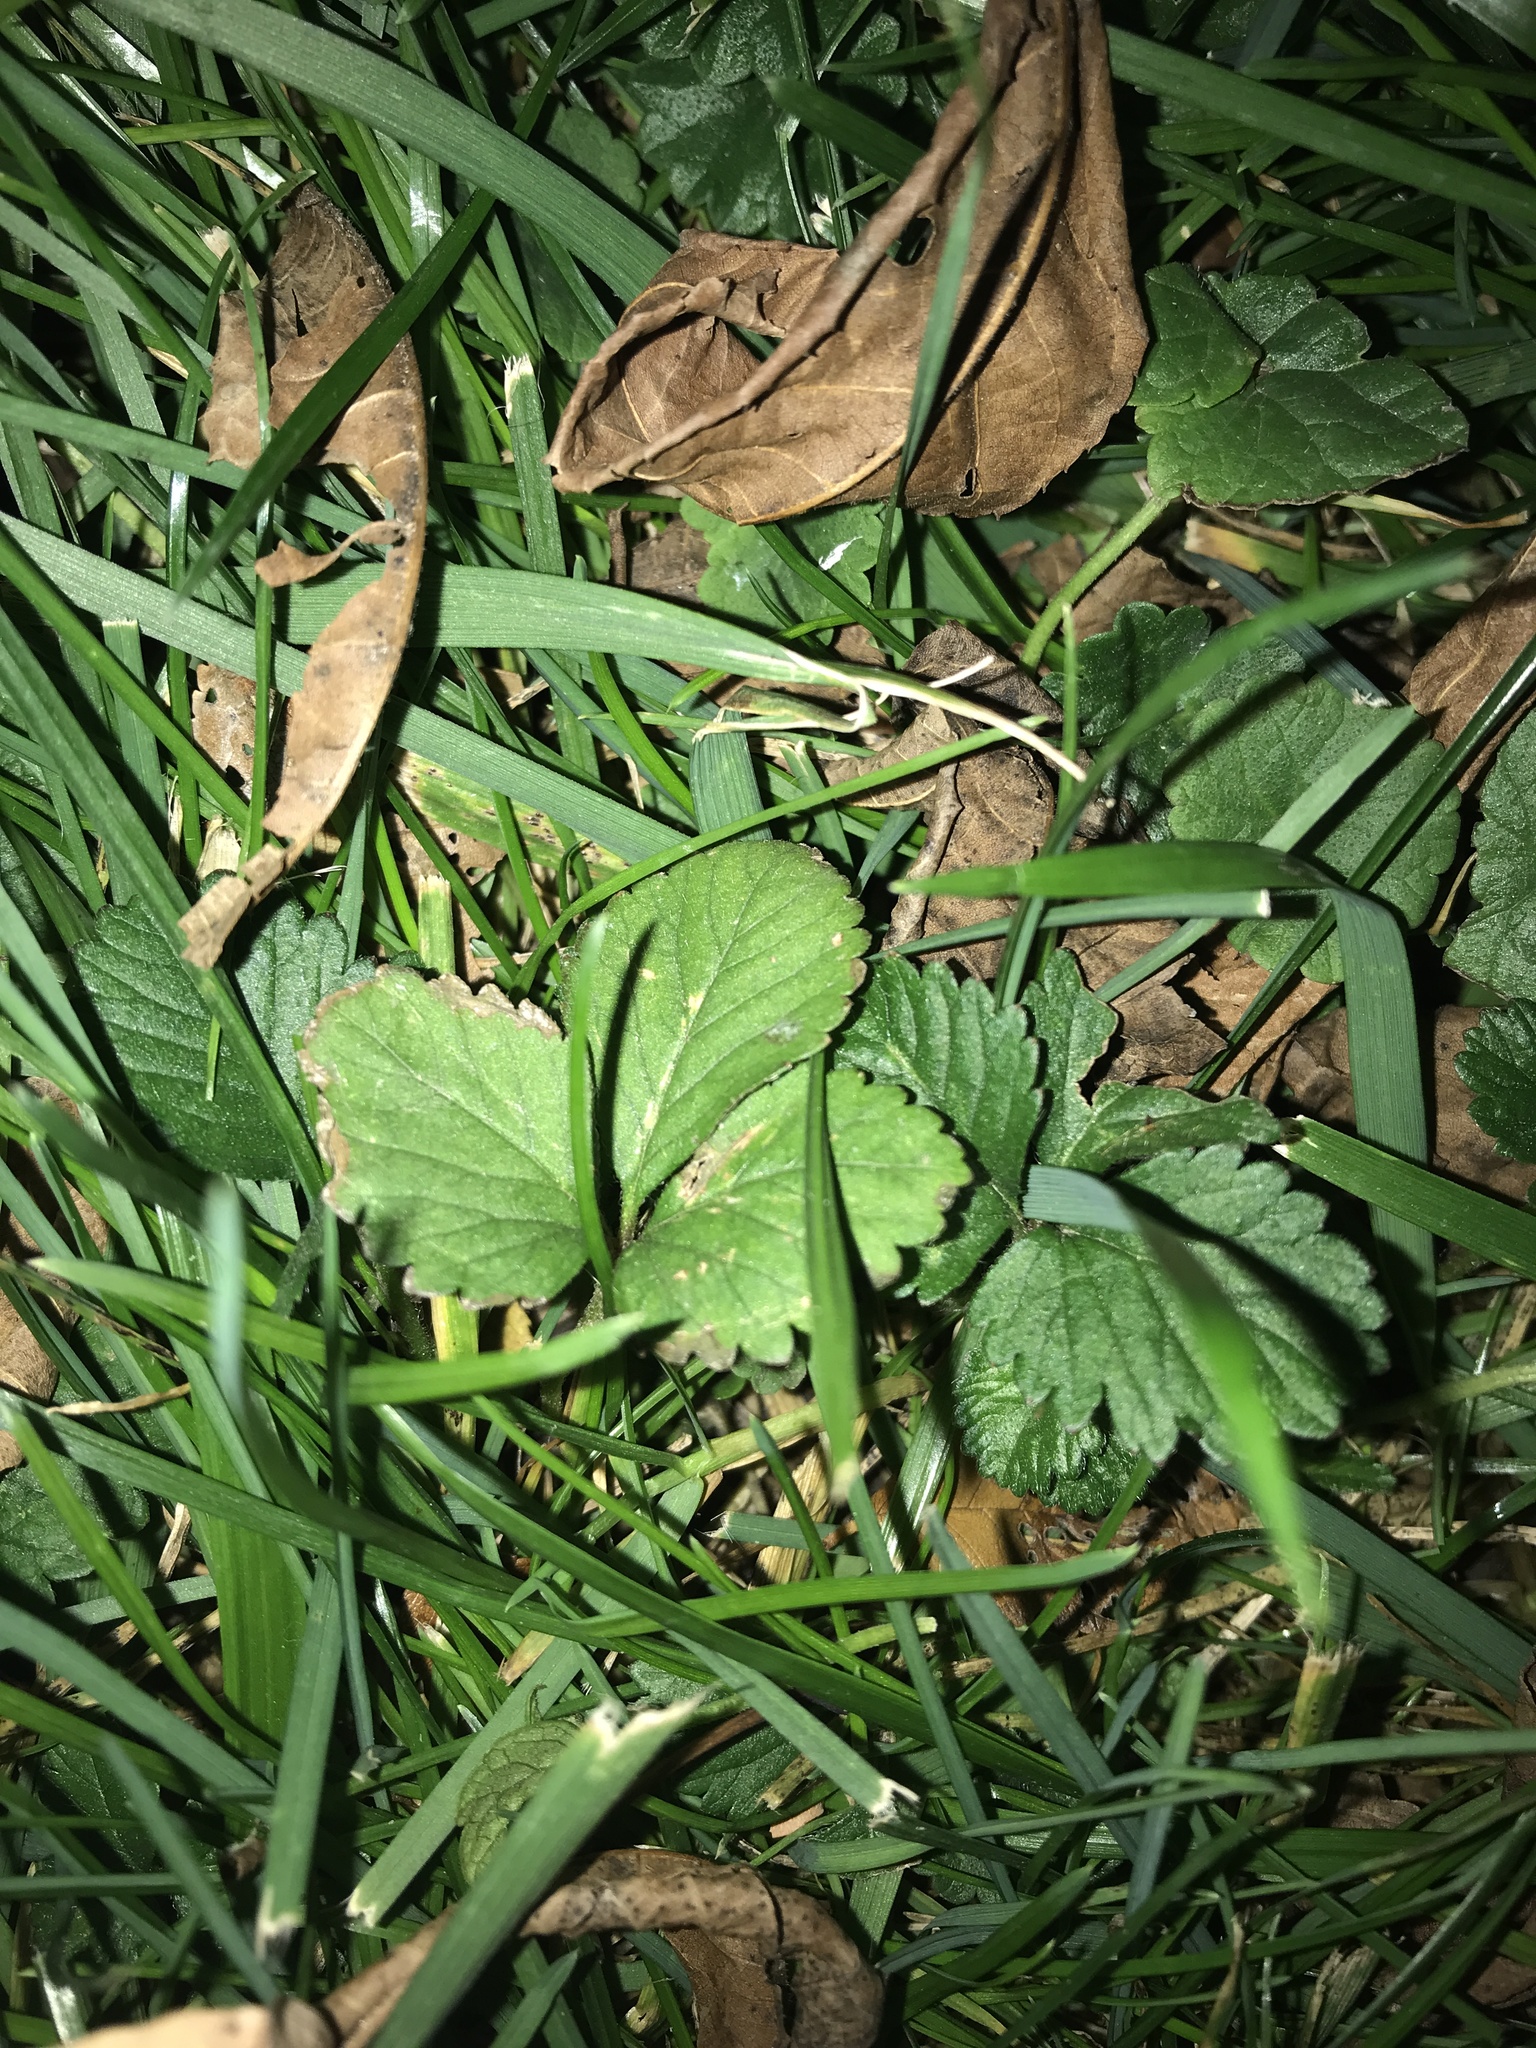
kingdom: Plantae
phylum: Tracheophyta
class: Magnoliopsida
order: Rosales
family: Rosaceae
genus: Potentilla
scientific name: Potentilla indica
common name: Yellow-flowered strawberry
